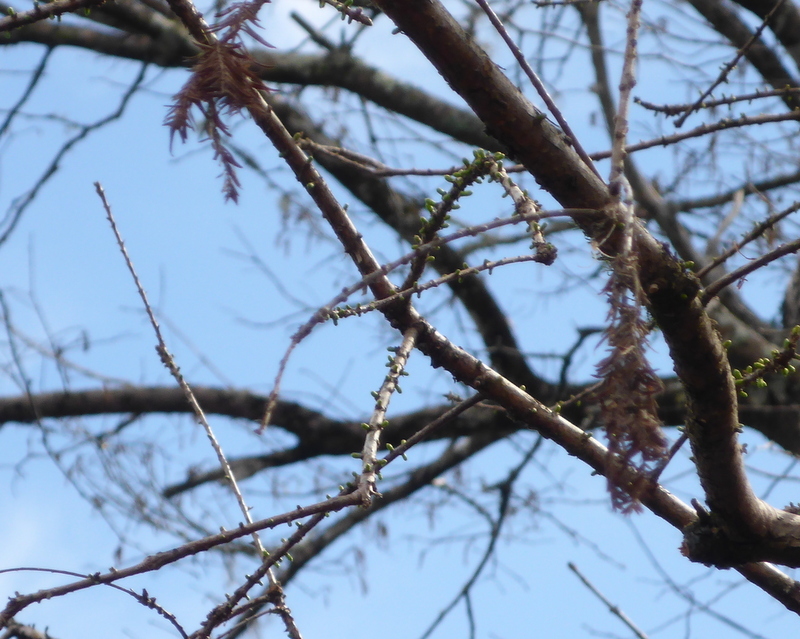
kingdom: Plantae
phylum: Tracheophyta
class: Pinopsida
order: Pinales
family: Cupressaceae
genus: Taxodium
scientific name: Taxodium distichum
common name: Bald cypress
